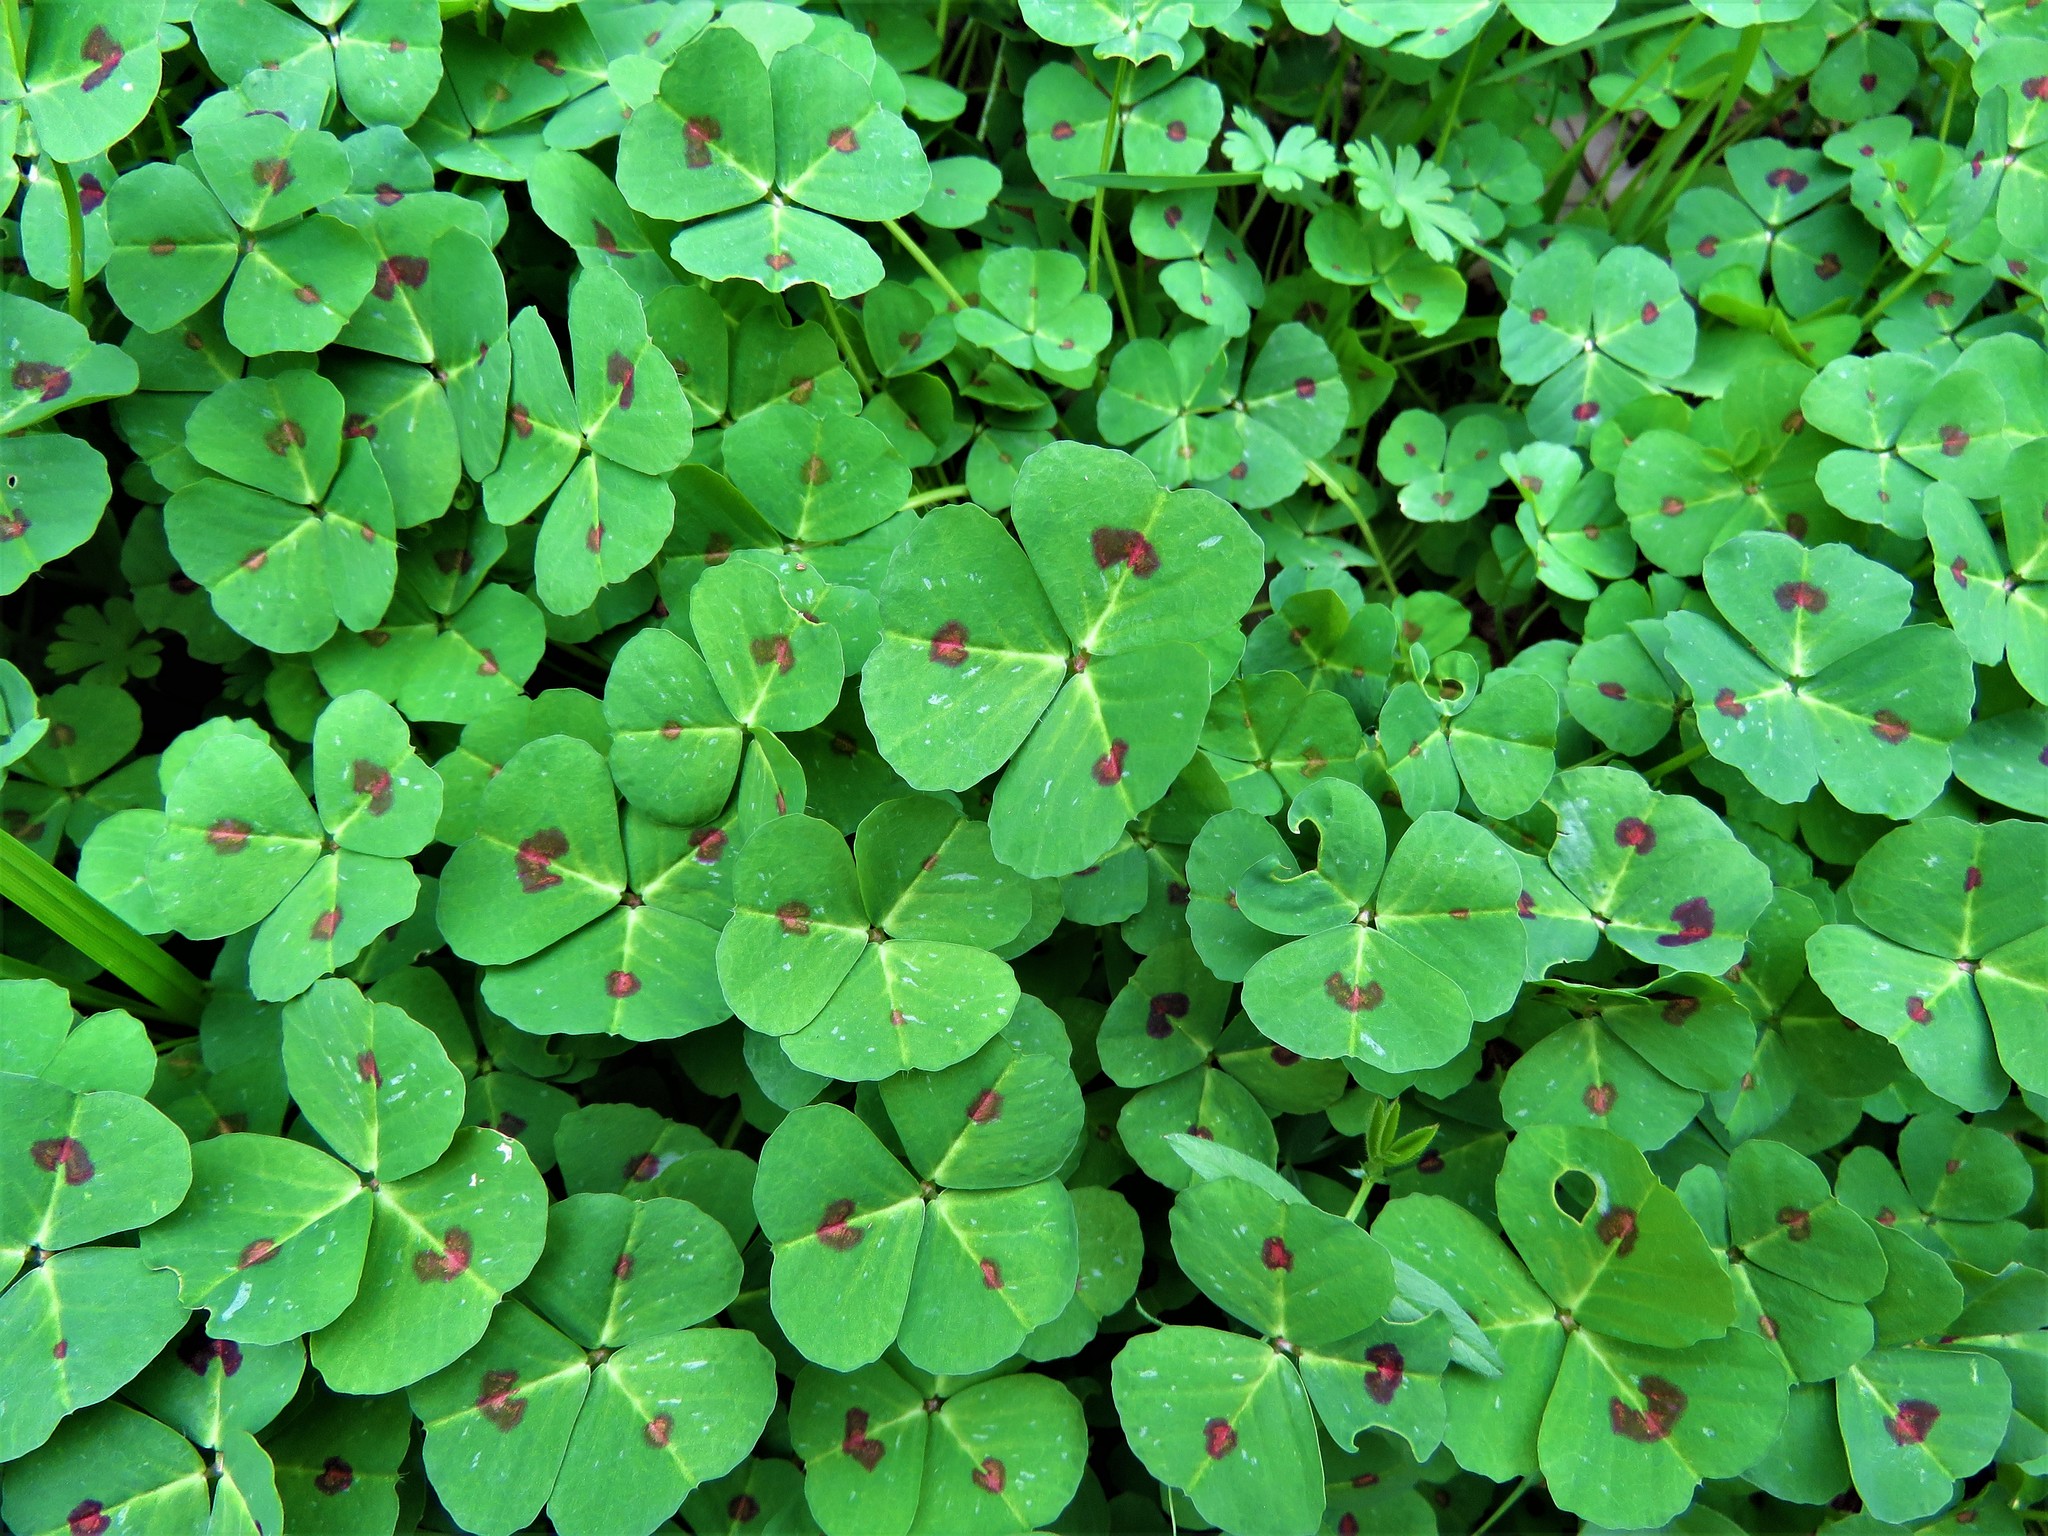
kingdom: Plantae
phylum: Tracheophyta
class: Magnoliopsida
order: Fabales
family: Fabaceae
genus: Medicago
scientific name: Medicago arabica
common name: Spotted medick
